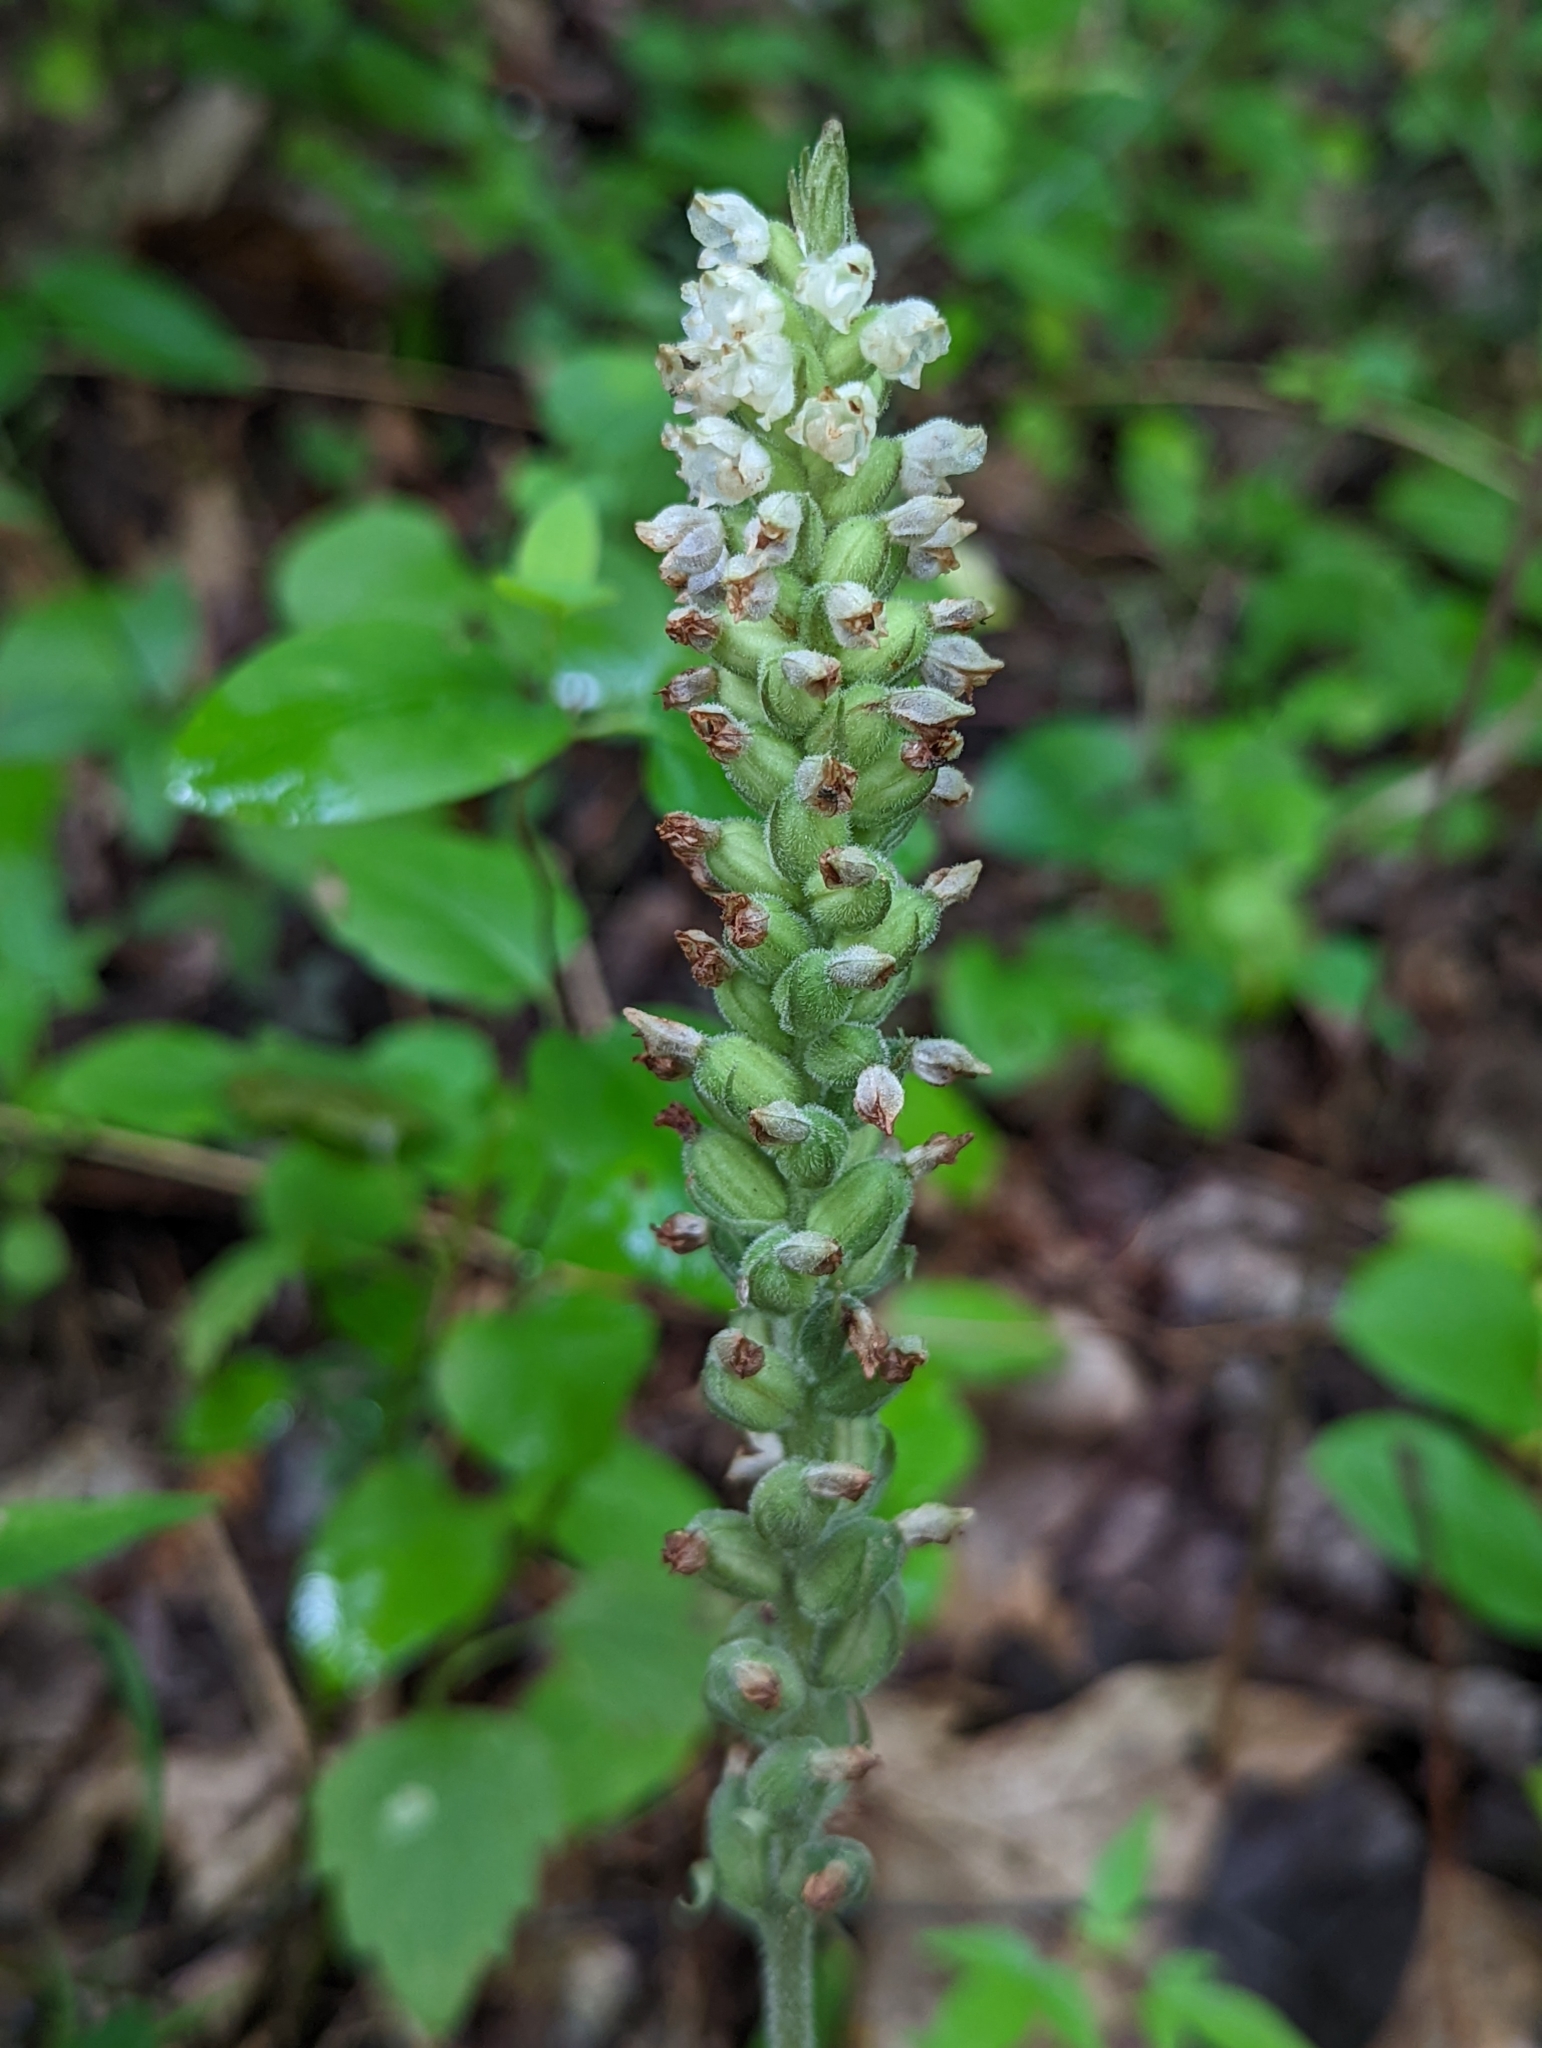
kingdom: Plantae
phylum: Tracheophyta
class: Liliopsida
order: Asparagales
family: Orchidaceae
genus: Goodyera
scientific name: Goodyera pubescens
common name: Downy rattlesnake-plantain
